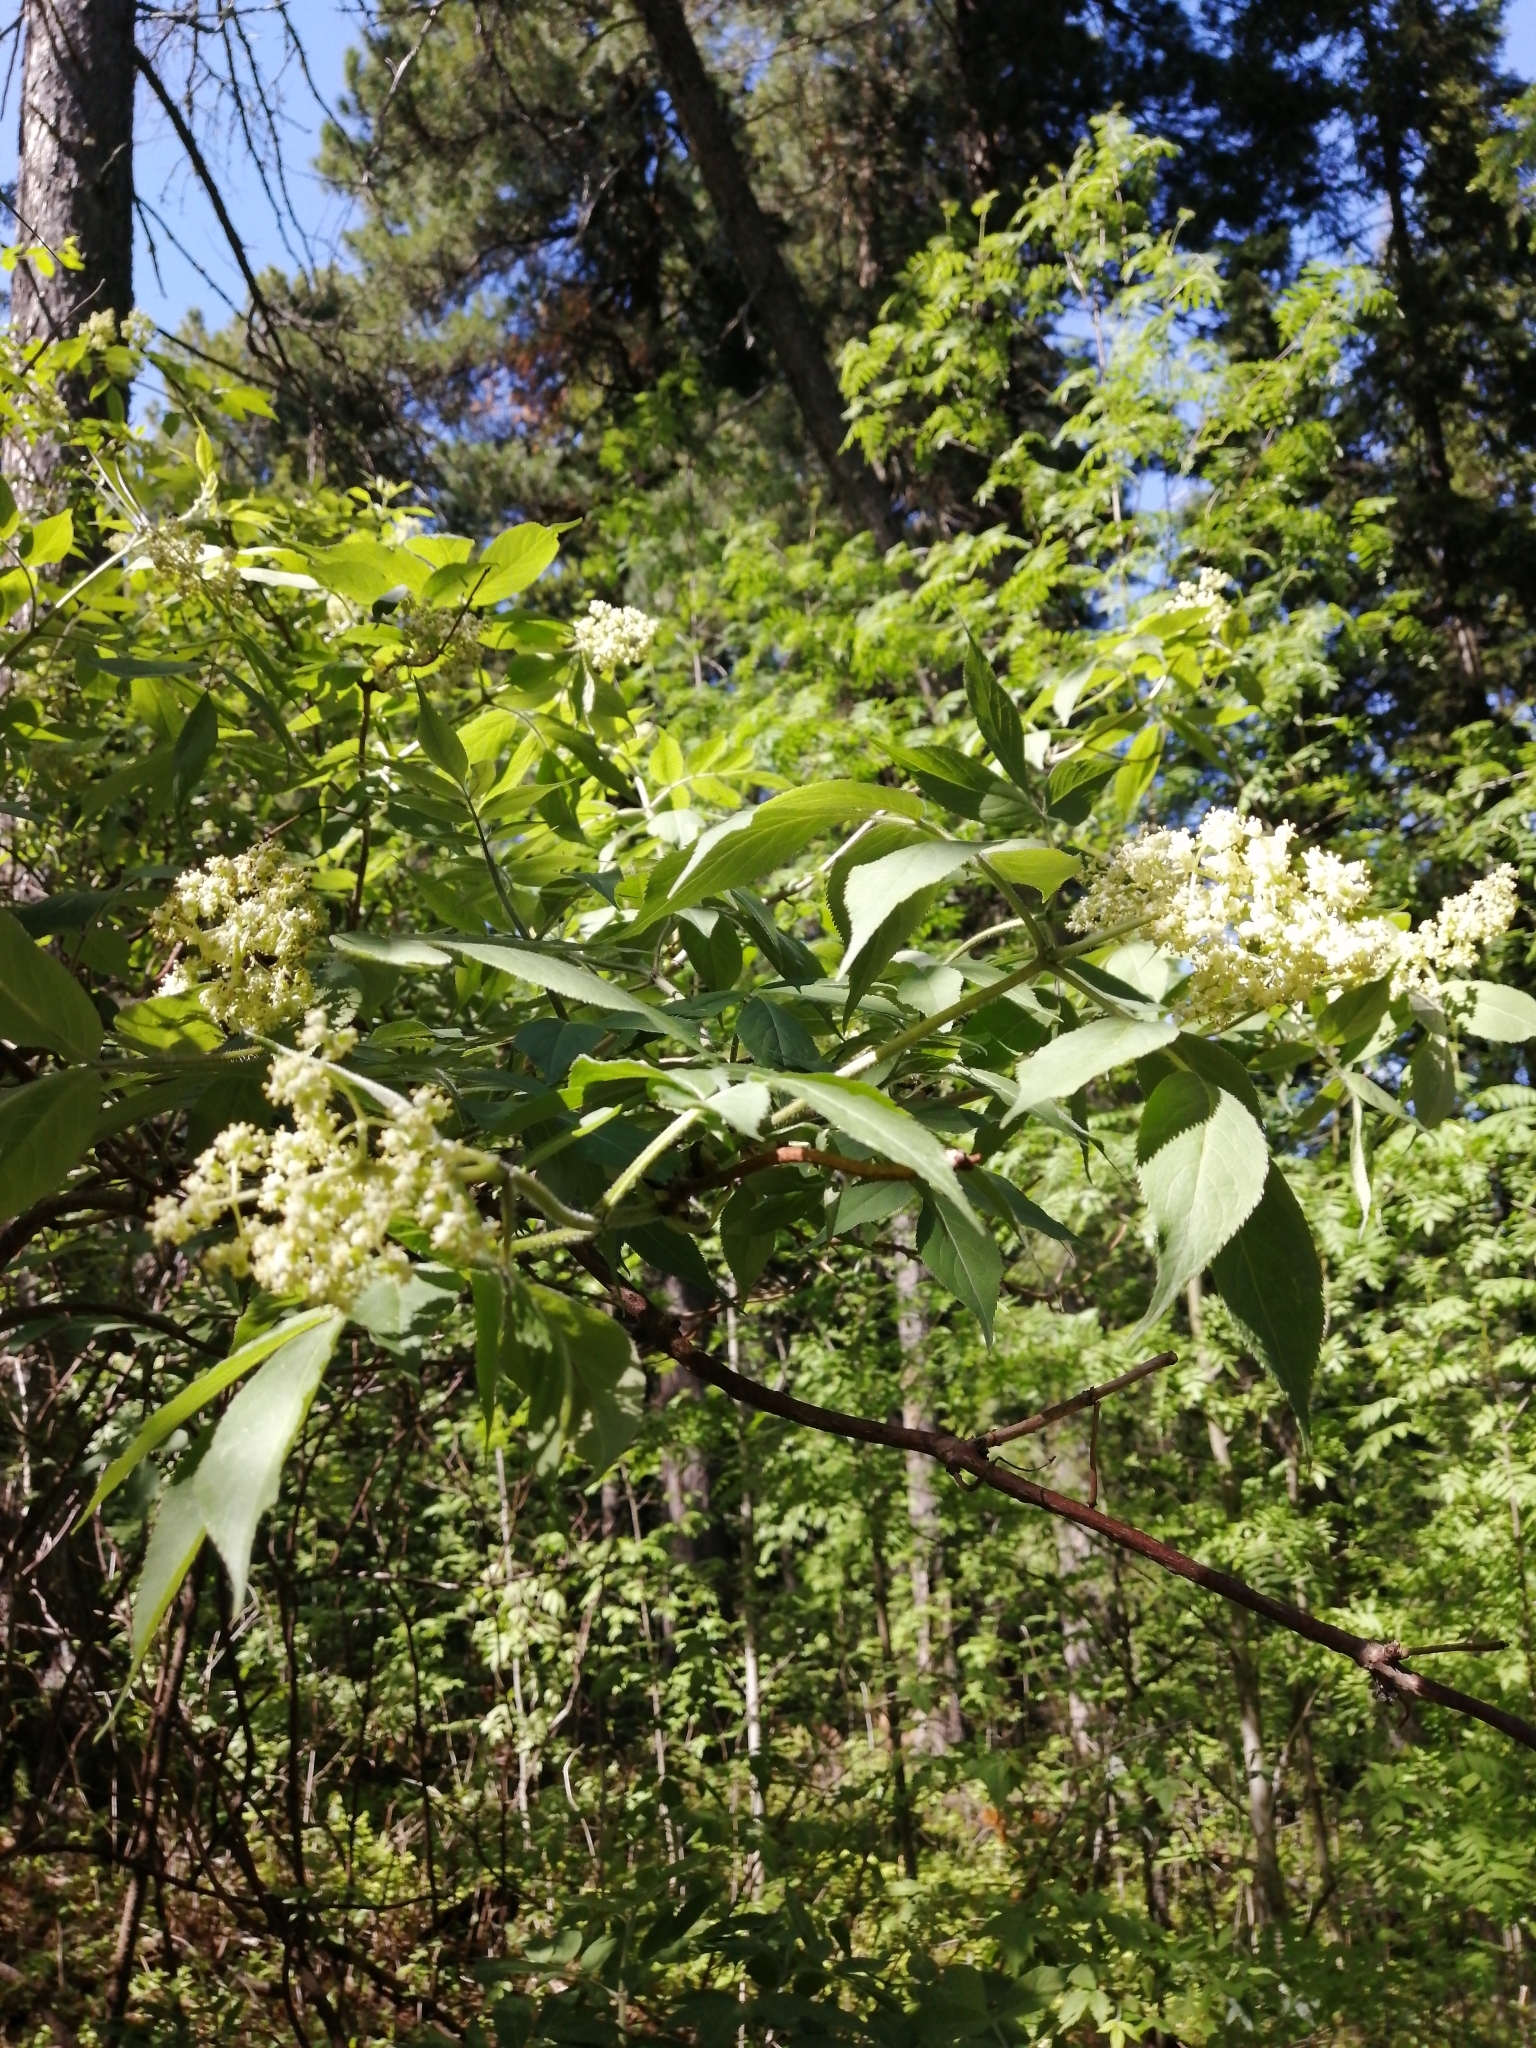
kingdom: Plantae
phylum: Tracheophyta
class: Magnoliopsida
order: Dipsacales
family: Viburnaceae
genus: Sambucus
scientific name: Sambucus sibirica
